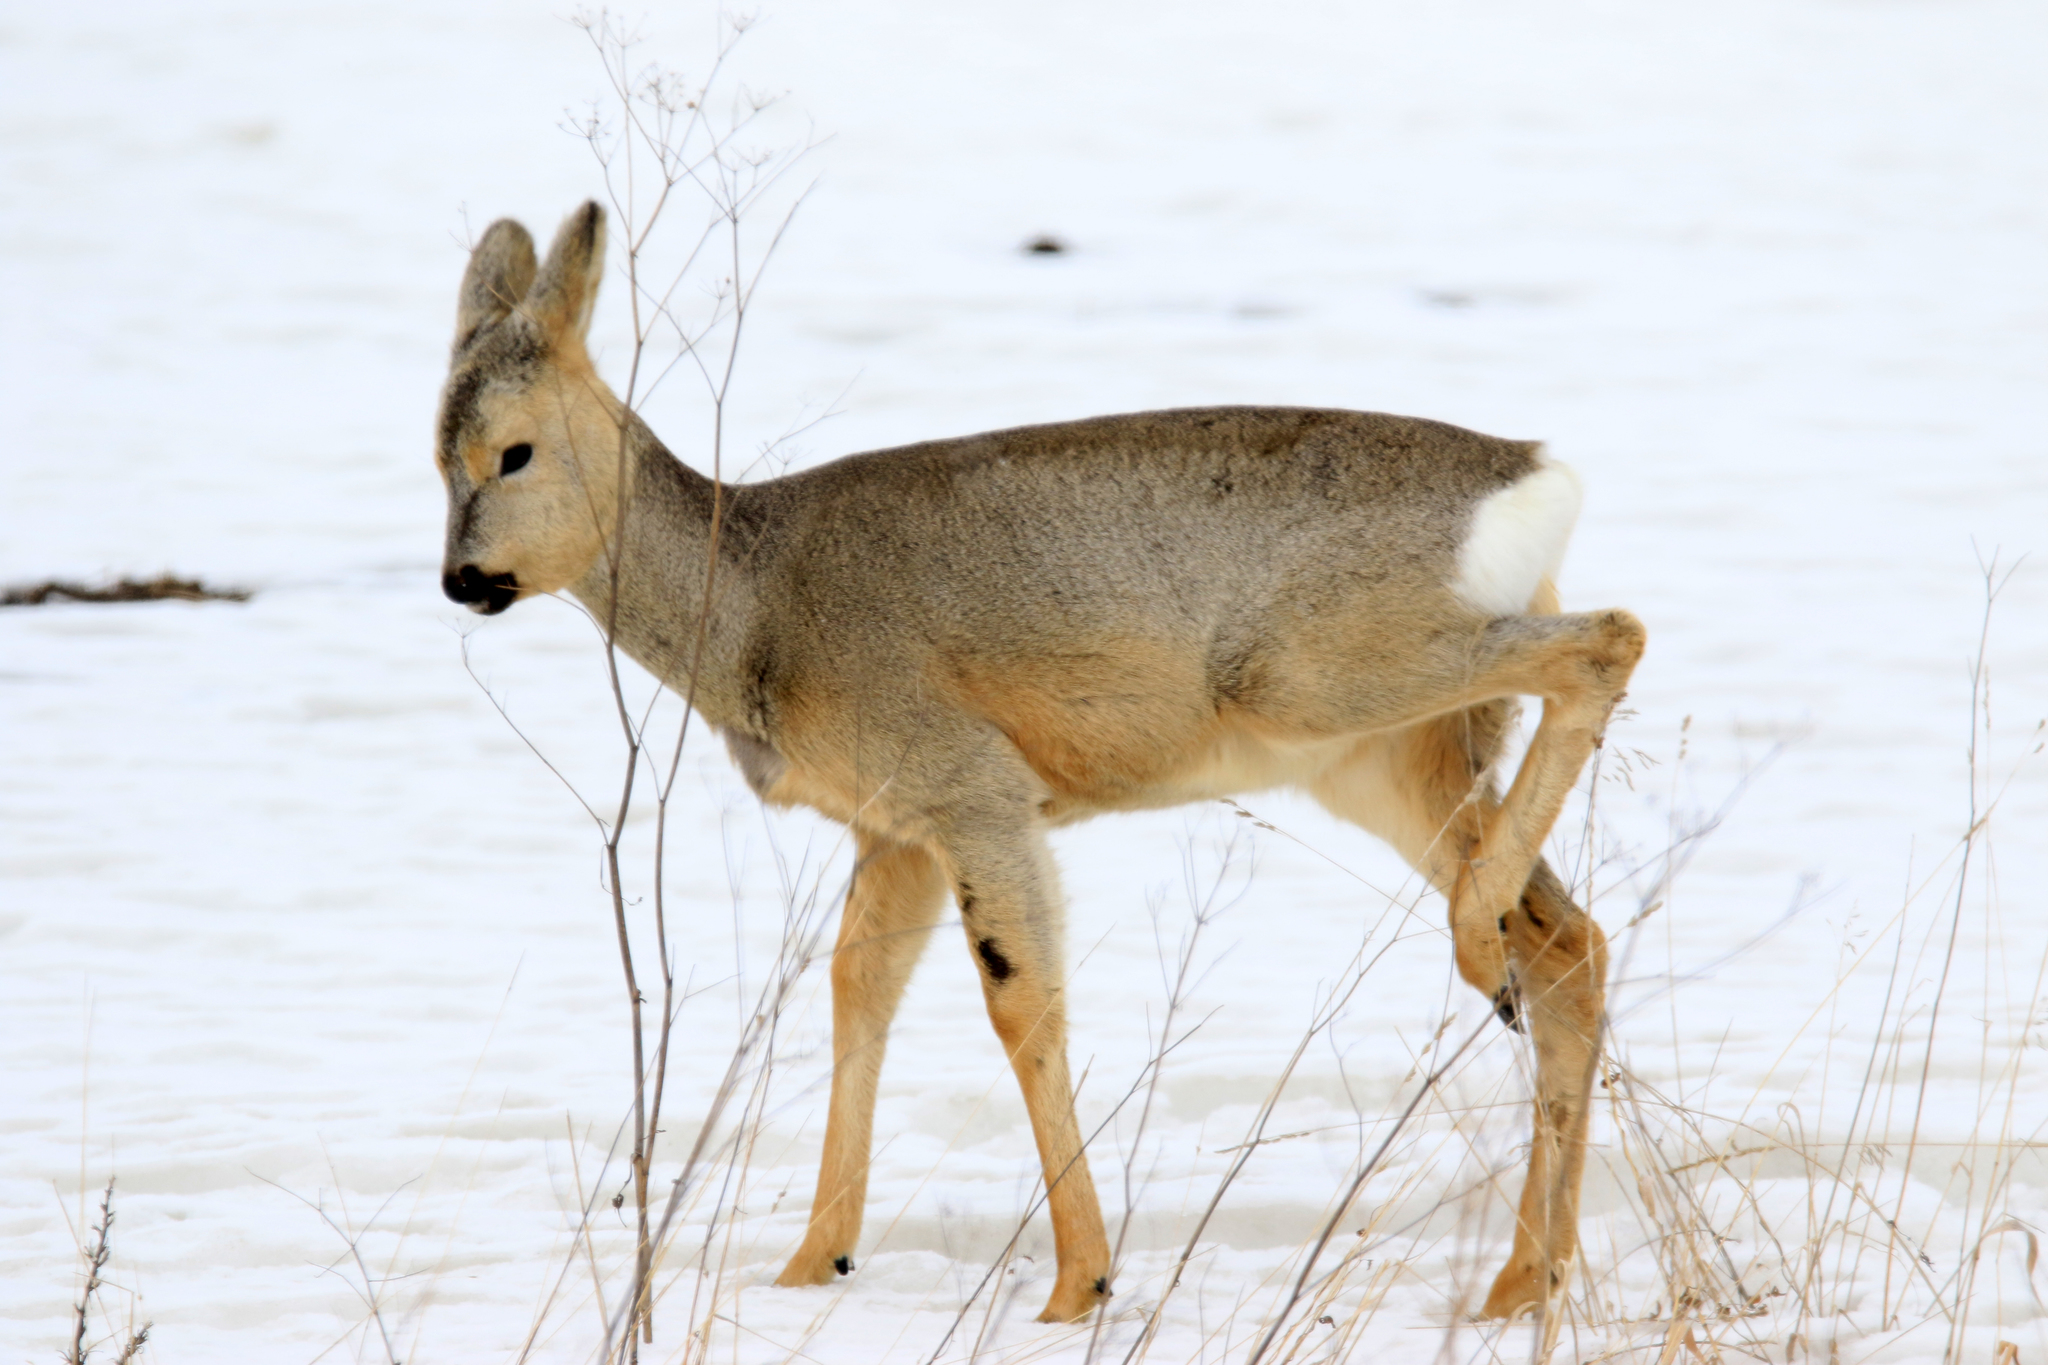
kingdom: Animalia
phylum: Chordata
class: Mammalia
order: Artiodactyla
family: Cervidae
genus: Capreolus
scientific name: Capreolus pygargus
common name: Siberian roe
